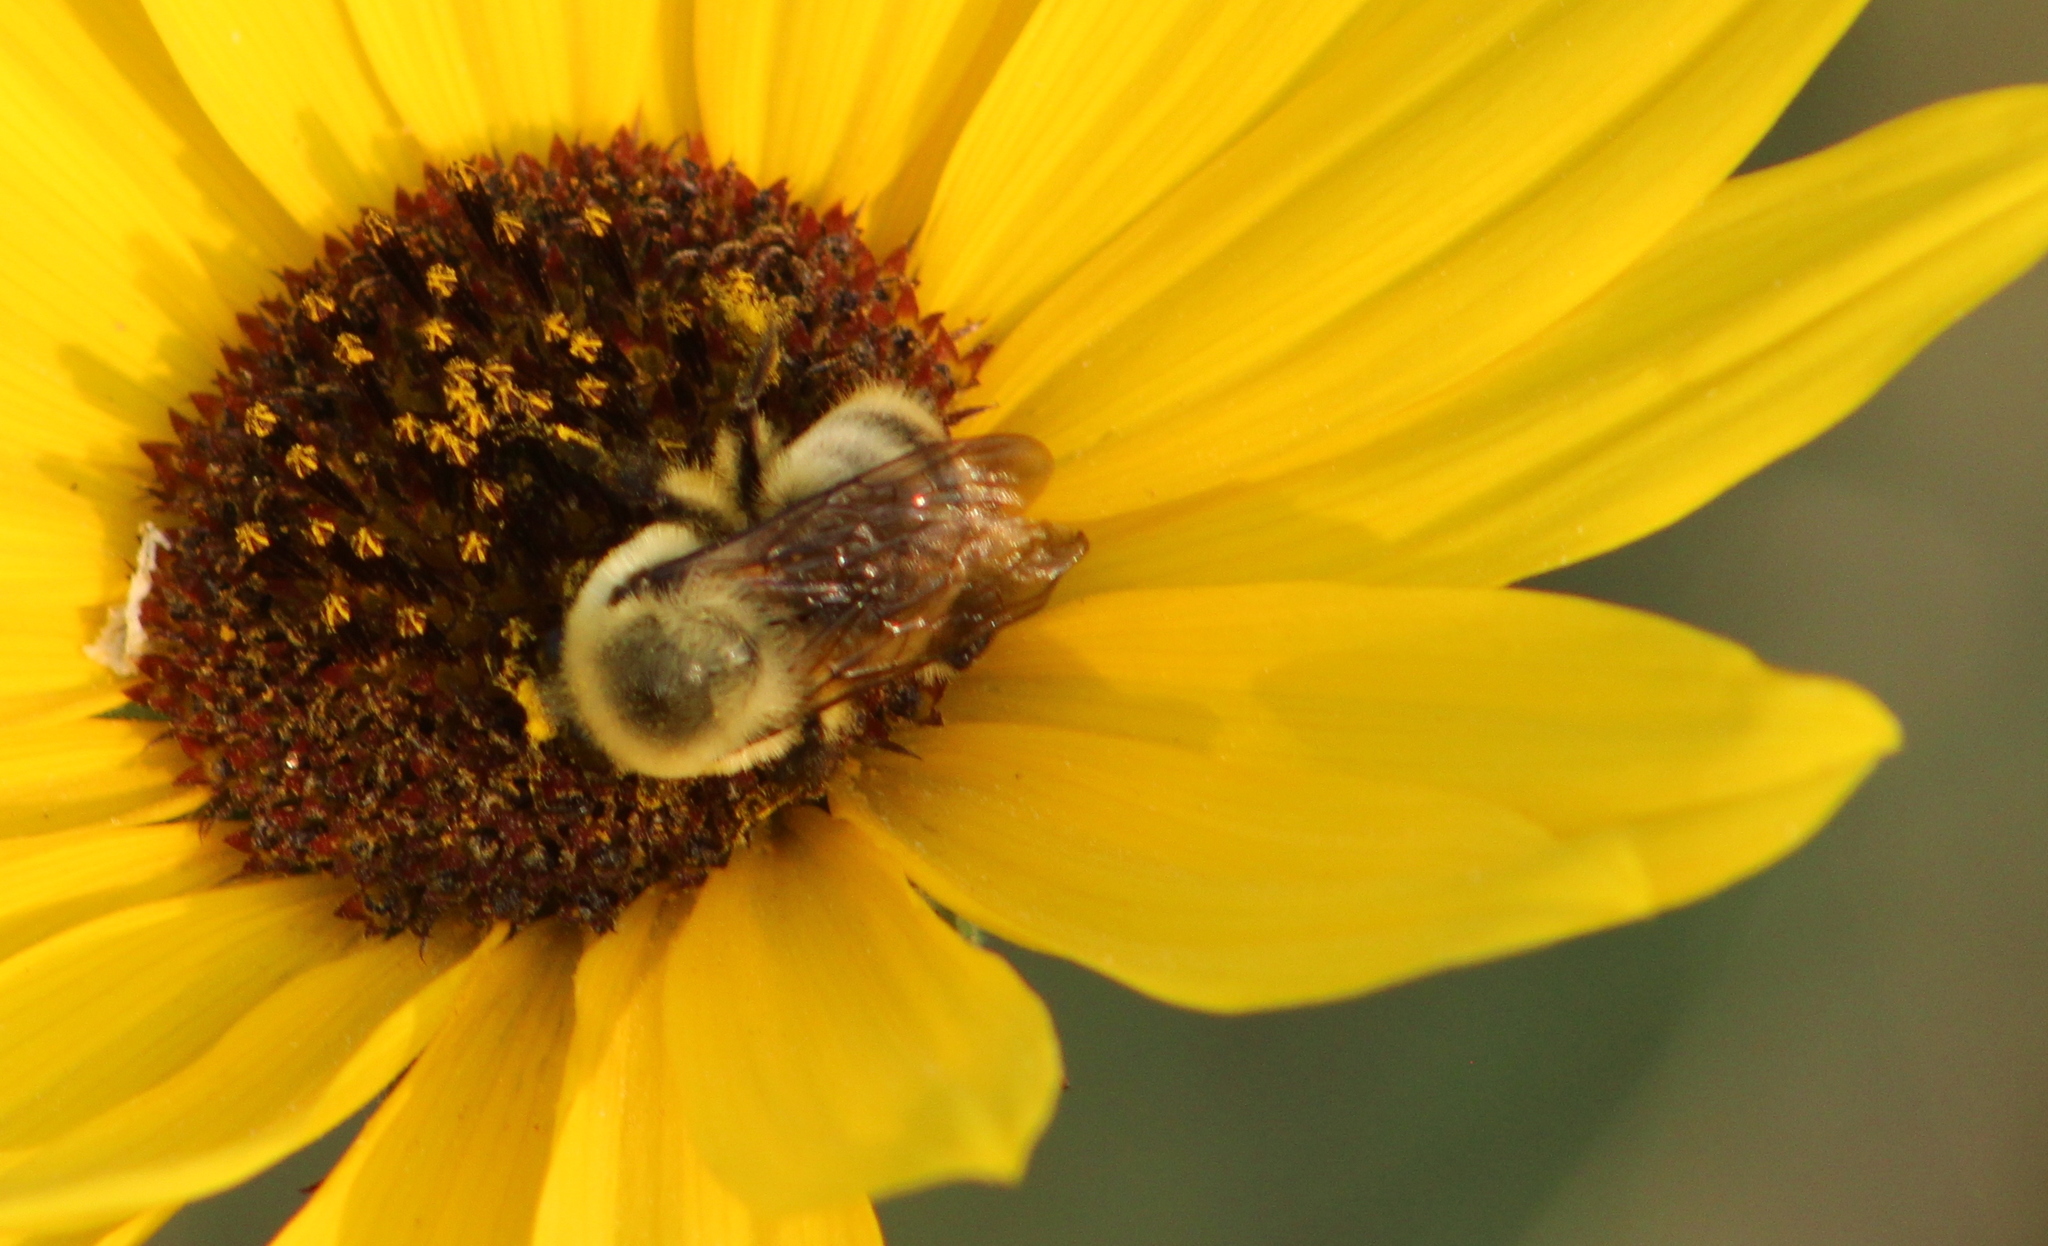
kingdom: Animalia
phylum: Arthropoda
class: Insecta
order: Hymenoptera
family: Apidae
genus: Bombus
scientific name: Bombus griseocollis
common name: Brown-belted bumble bee
